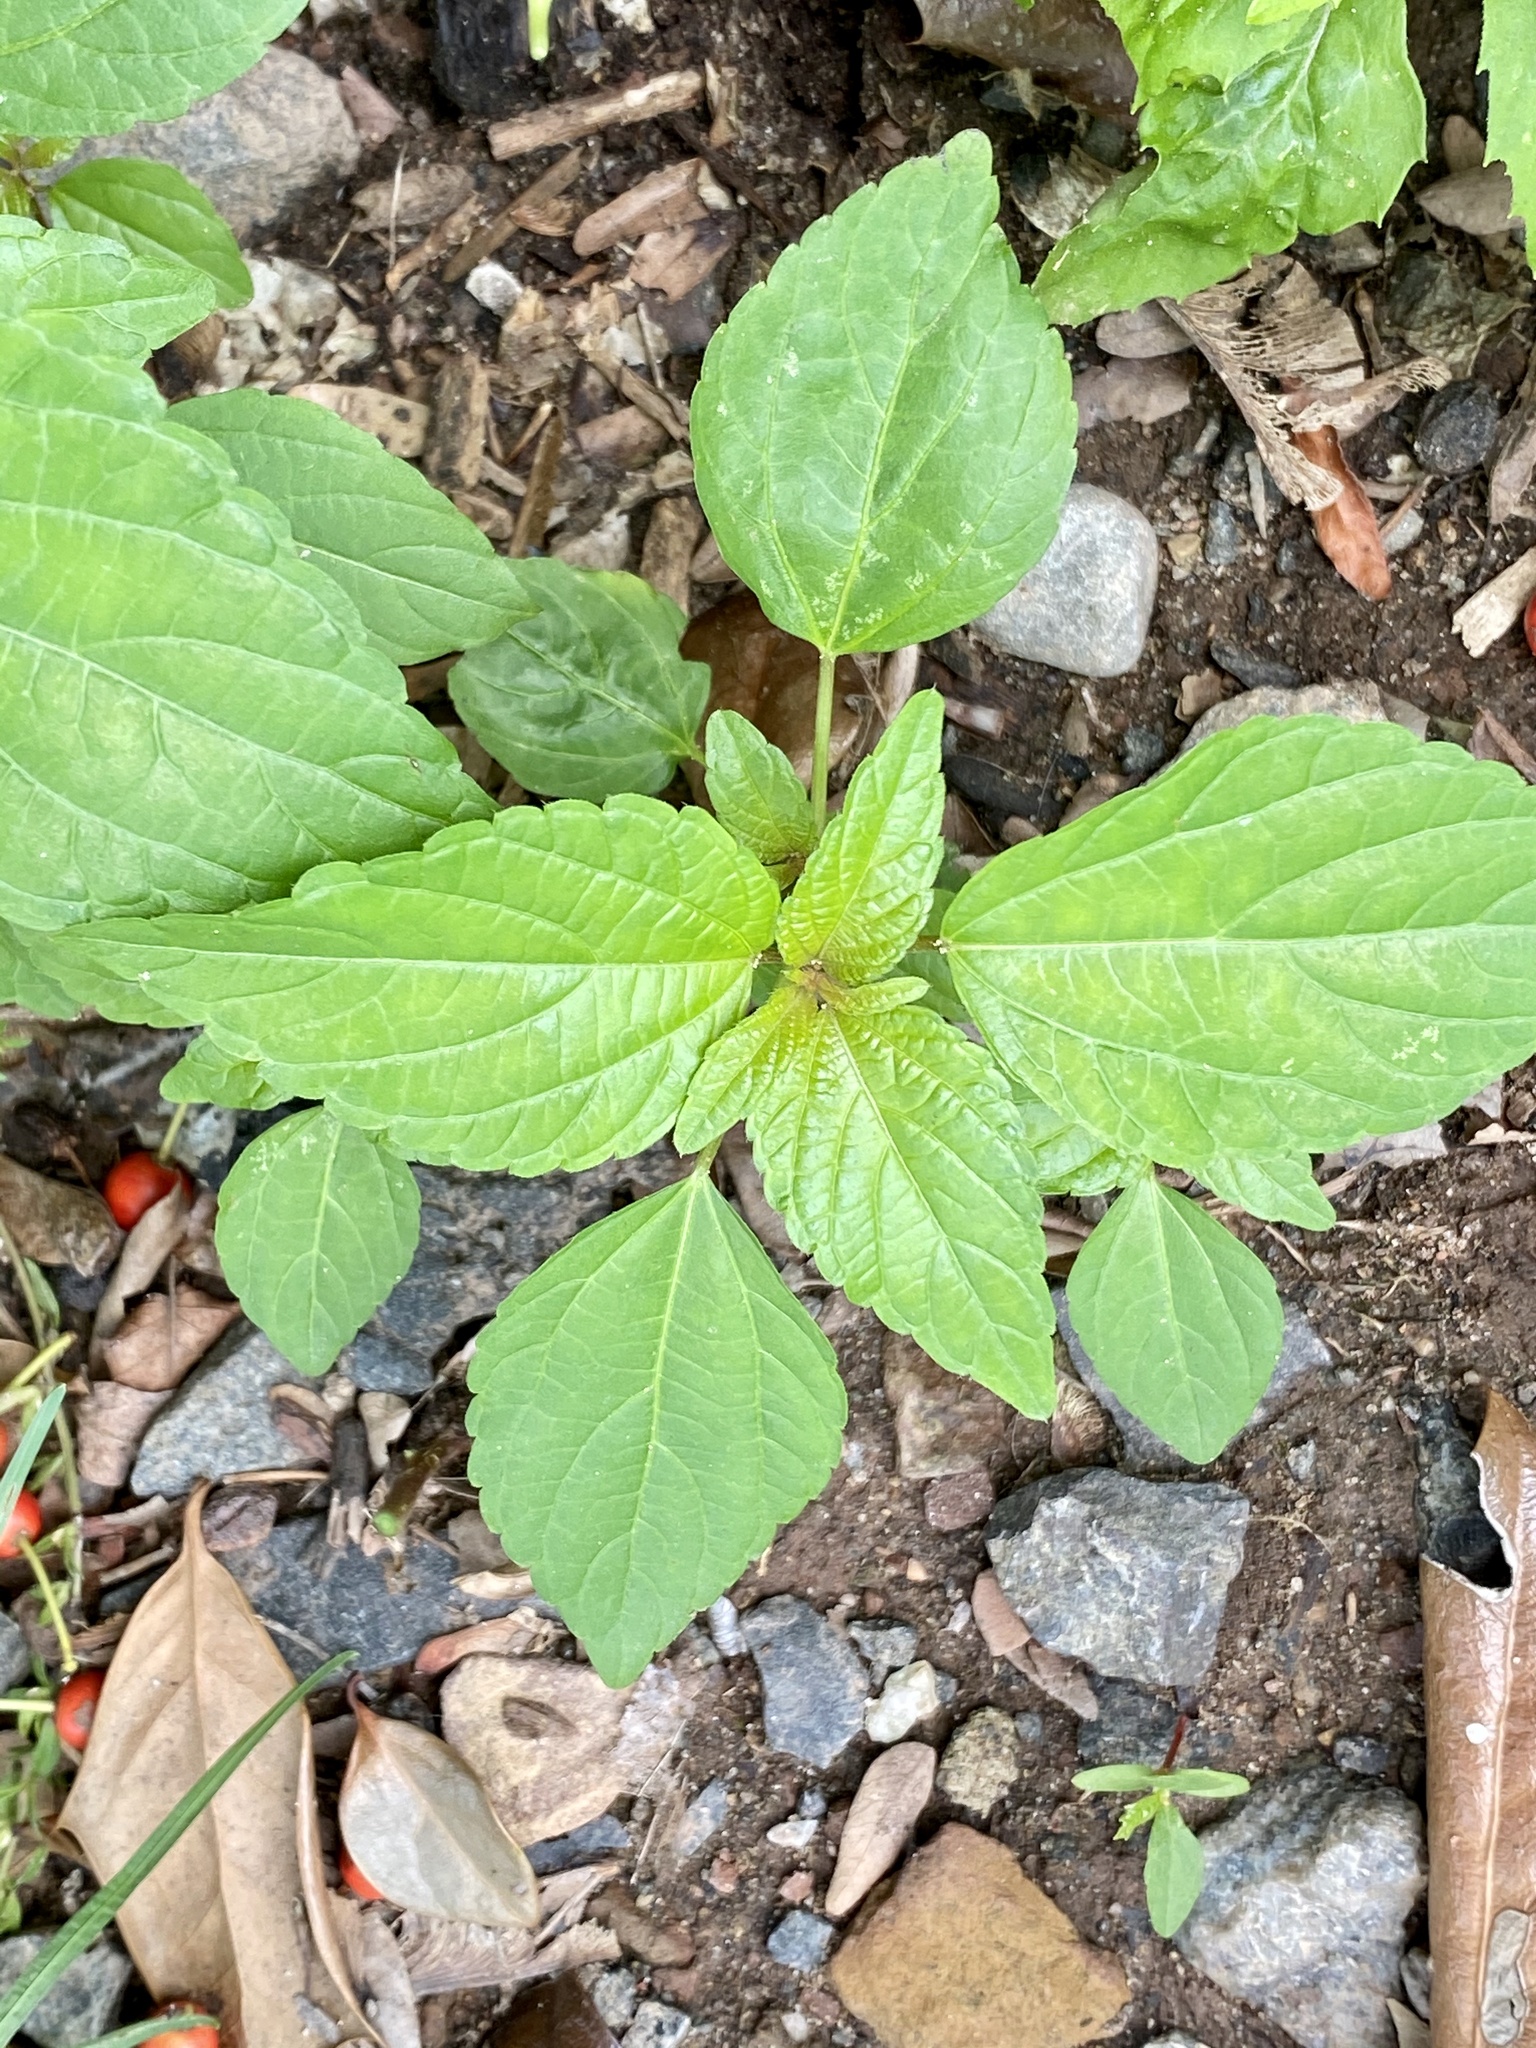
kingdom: Plantae
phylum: Tracheophyta
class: Magnoliopsida
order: Malpighiales
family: Euphorbiaceae
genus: Acalypha
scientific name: Acalypha rhomboidea
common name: Rhombic copperleaf
